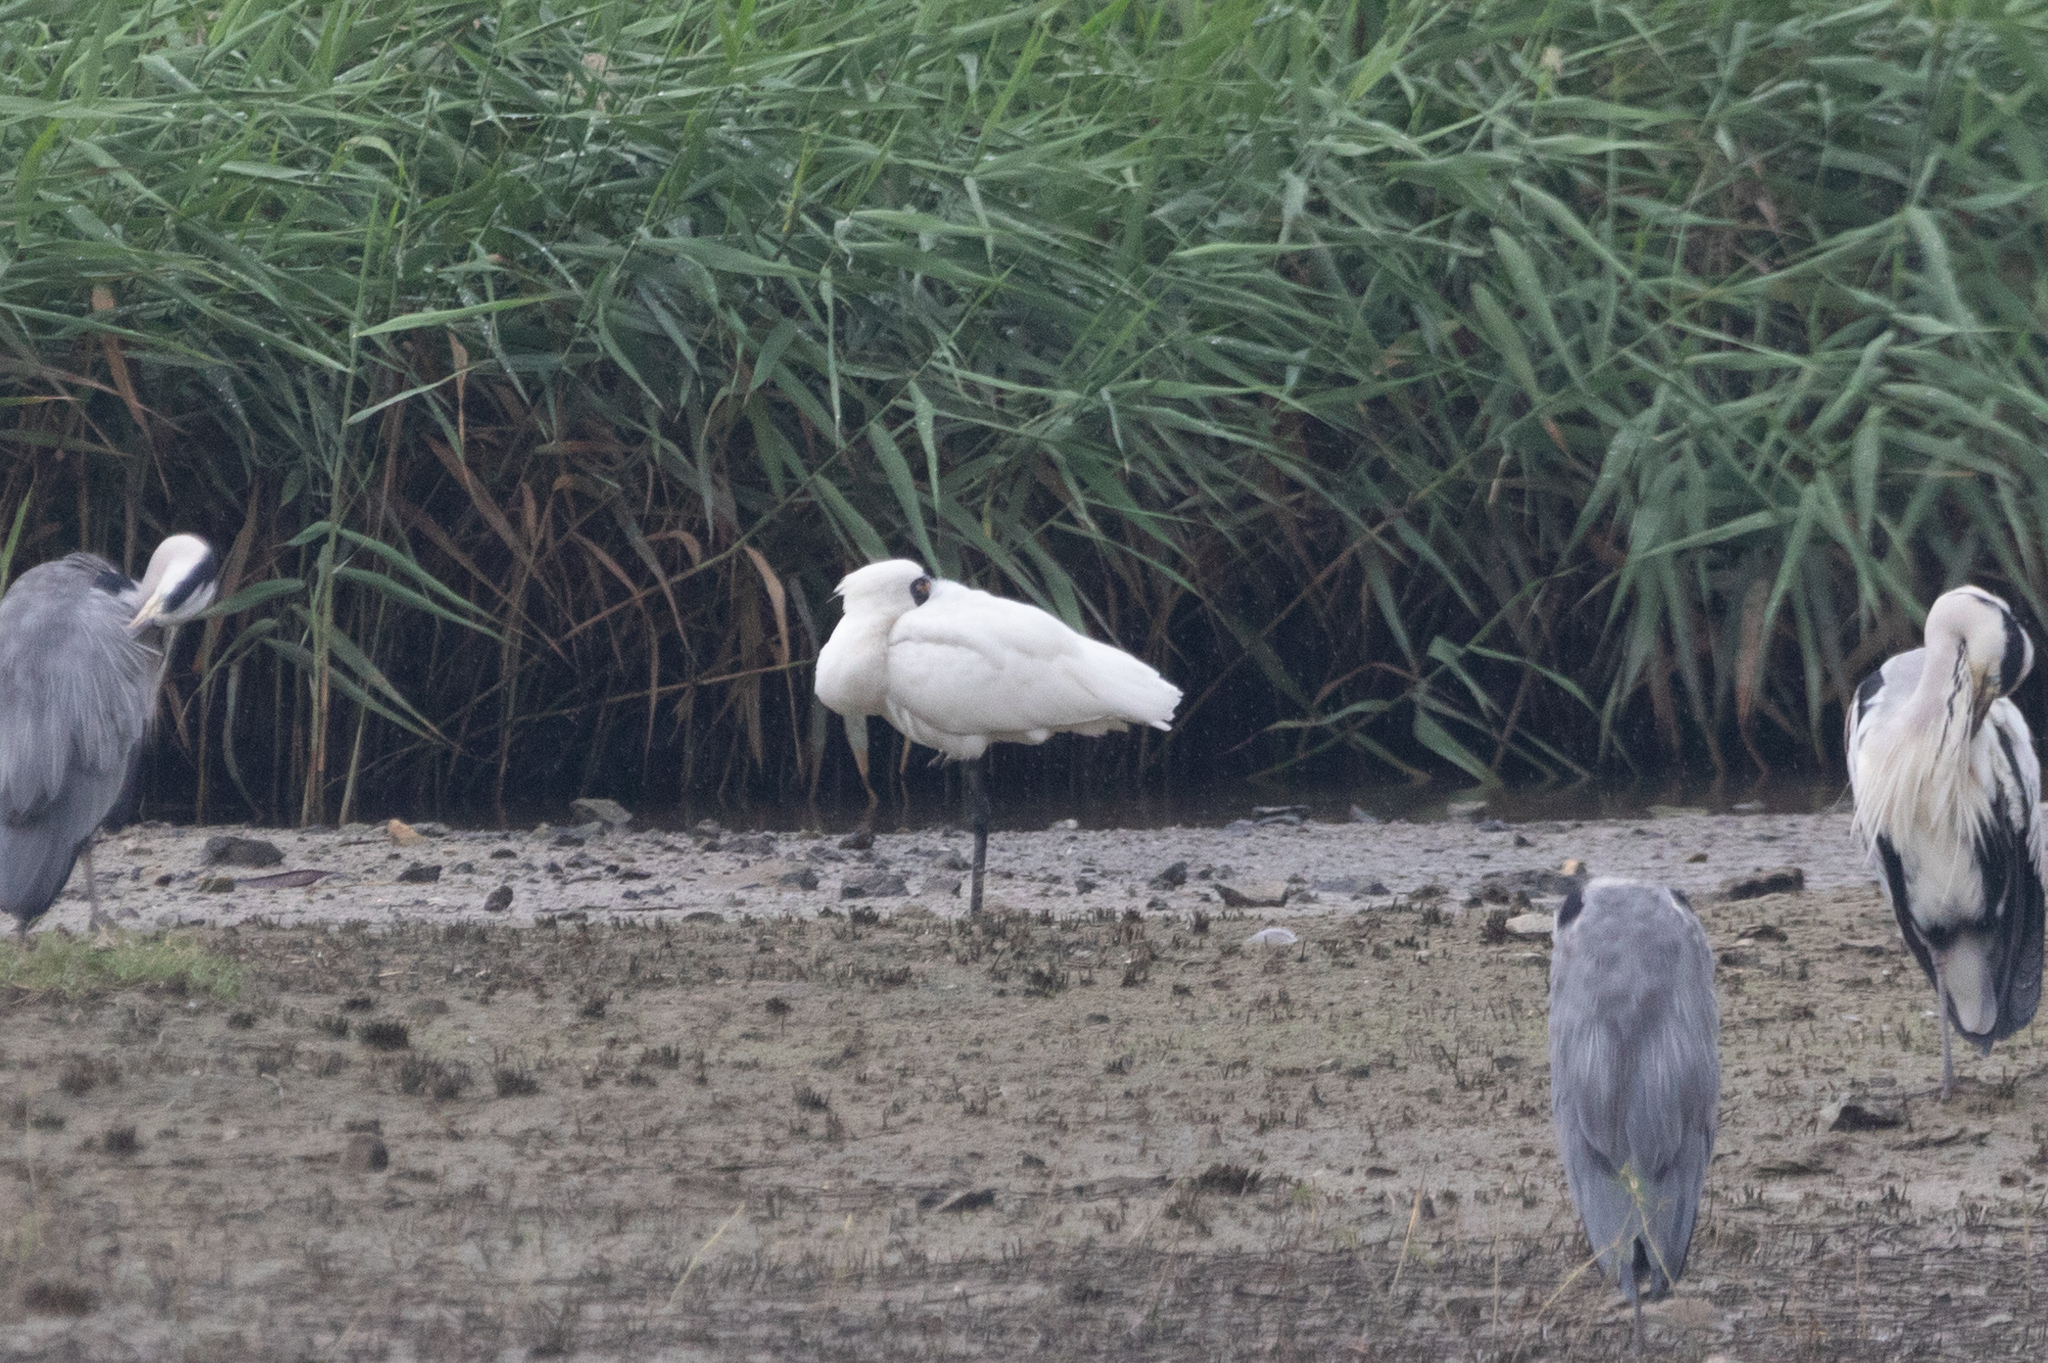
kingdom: Animalia
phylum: Chordata
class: Aves
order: Pelecaniformes
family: Threskiornithidae
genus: Platalea
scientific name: Platalea minor
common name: Black-faced spoonbill
